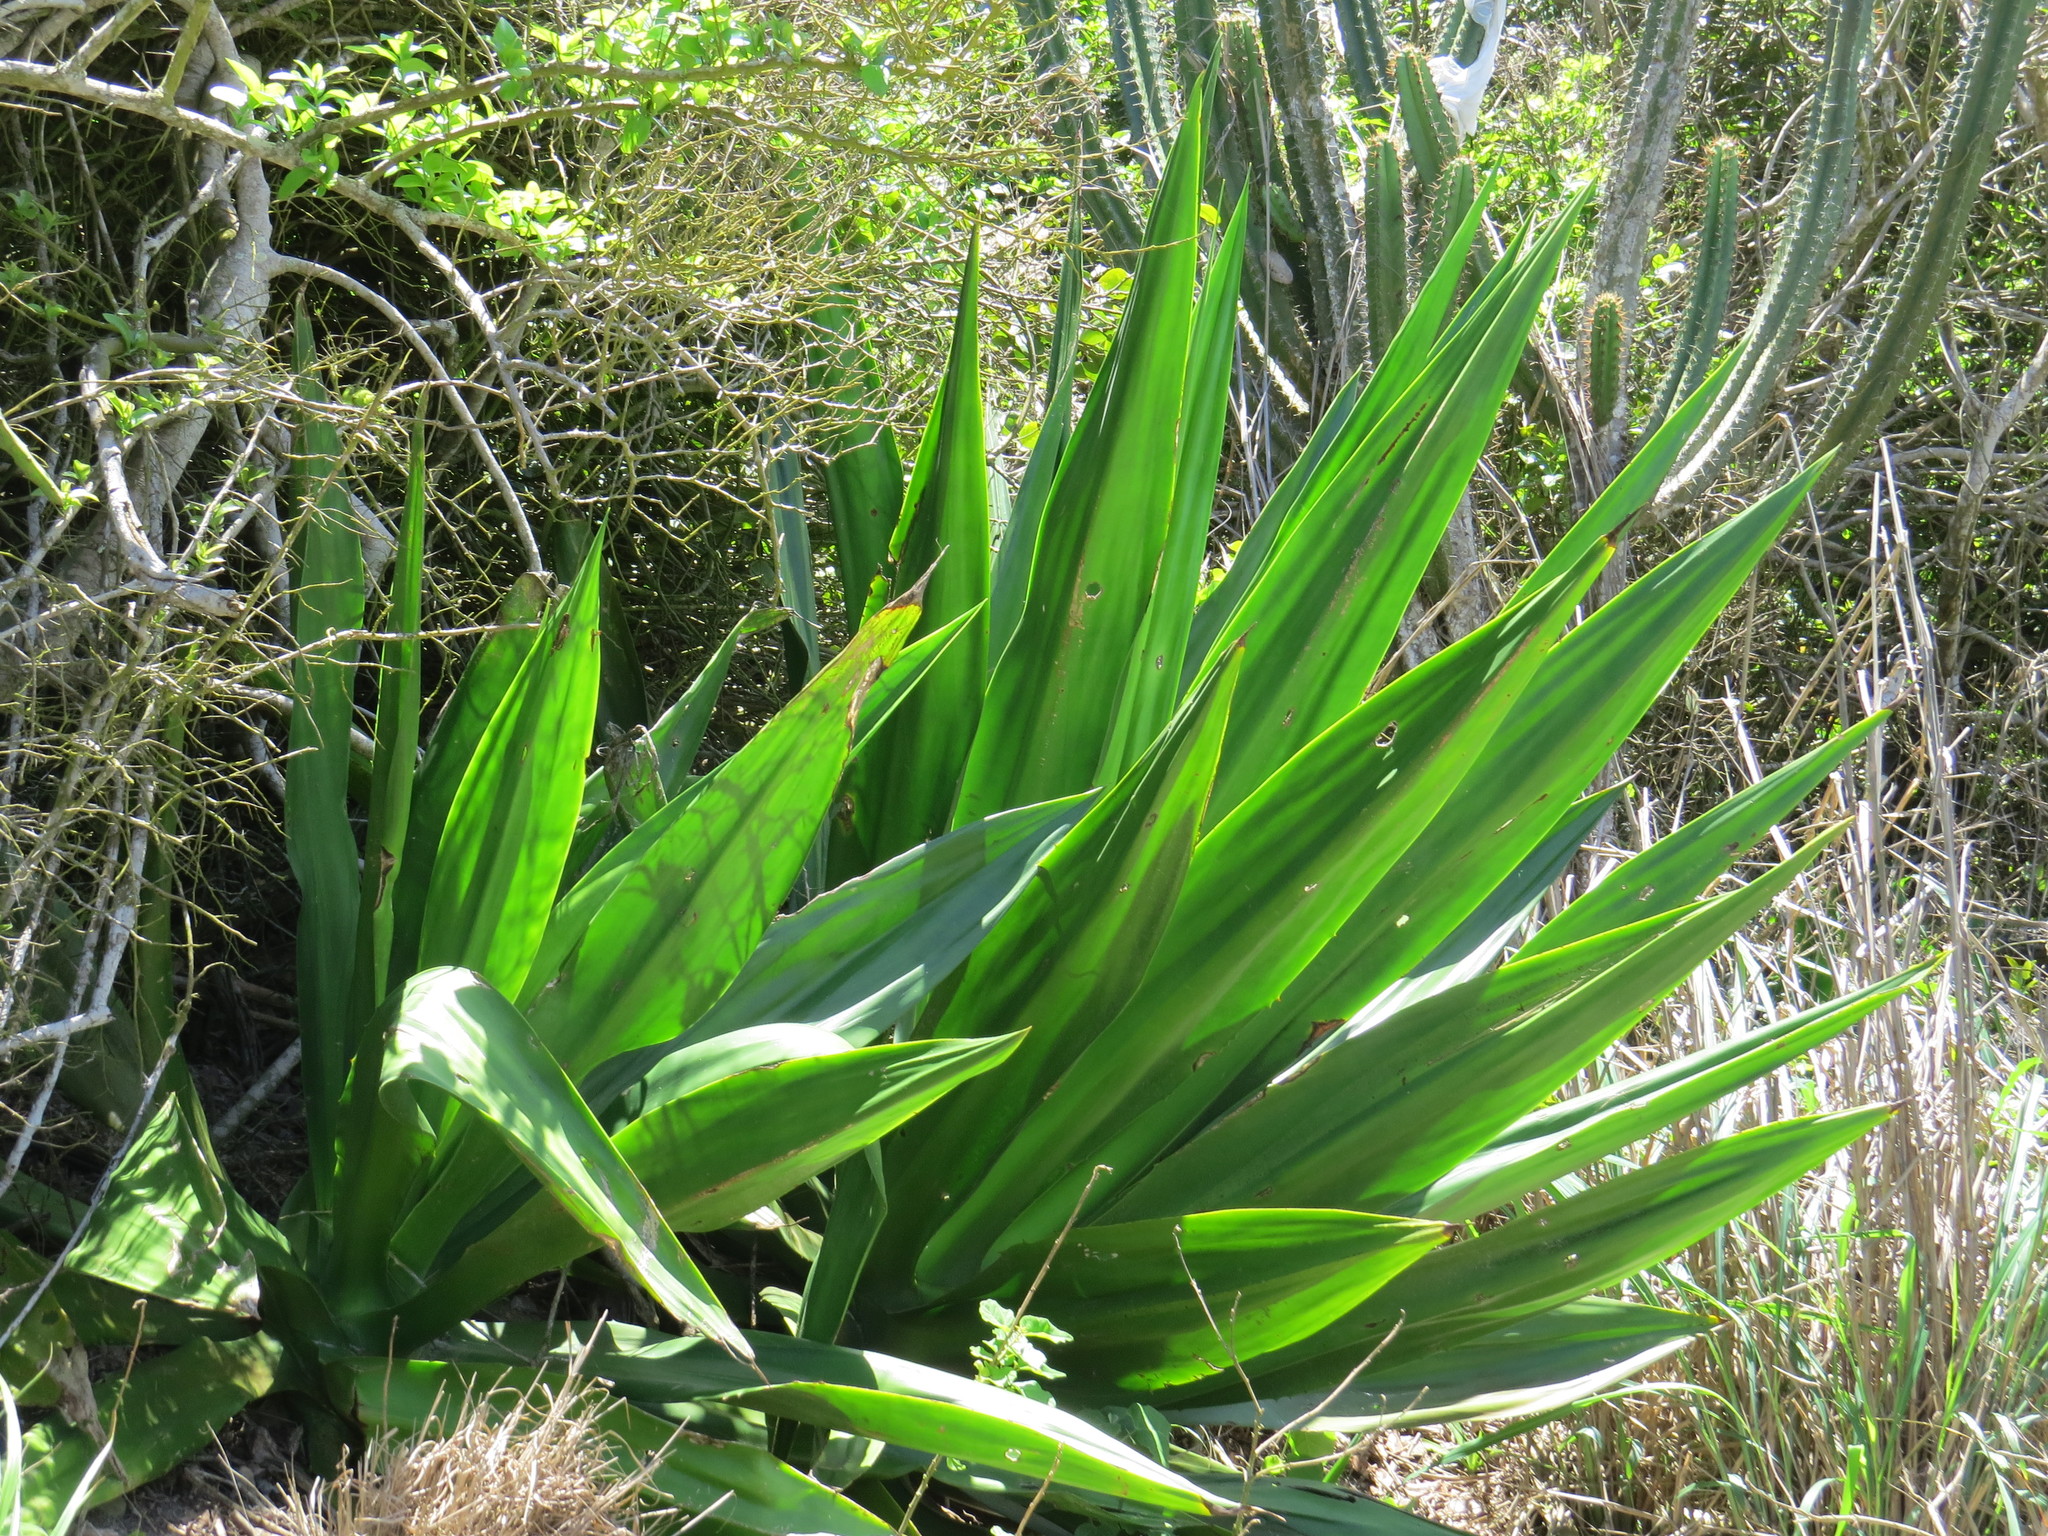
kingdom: Plantae
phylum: Tracheophyta
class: Liliopsida
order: Asparagales
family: Asparagaceae
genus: Furcraea
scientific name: Furcraea foetida
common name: Mauritius hemp
